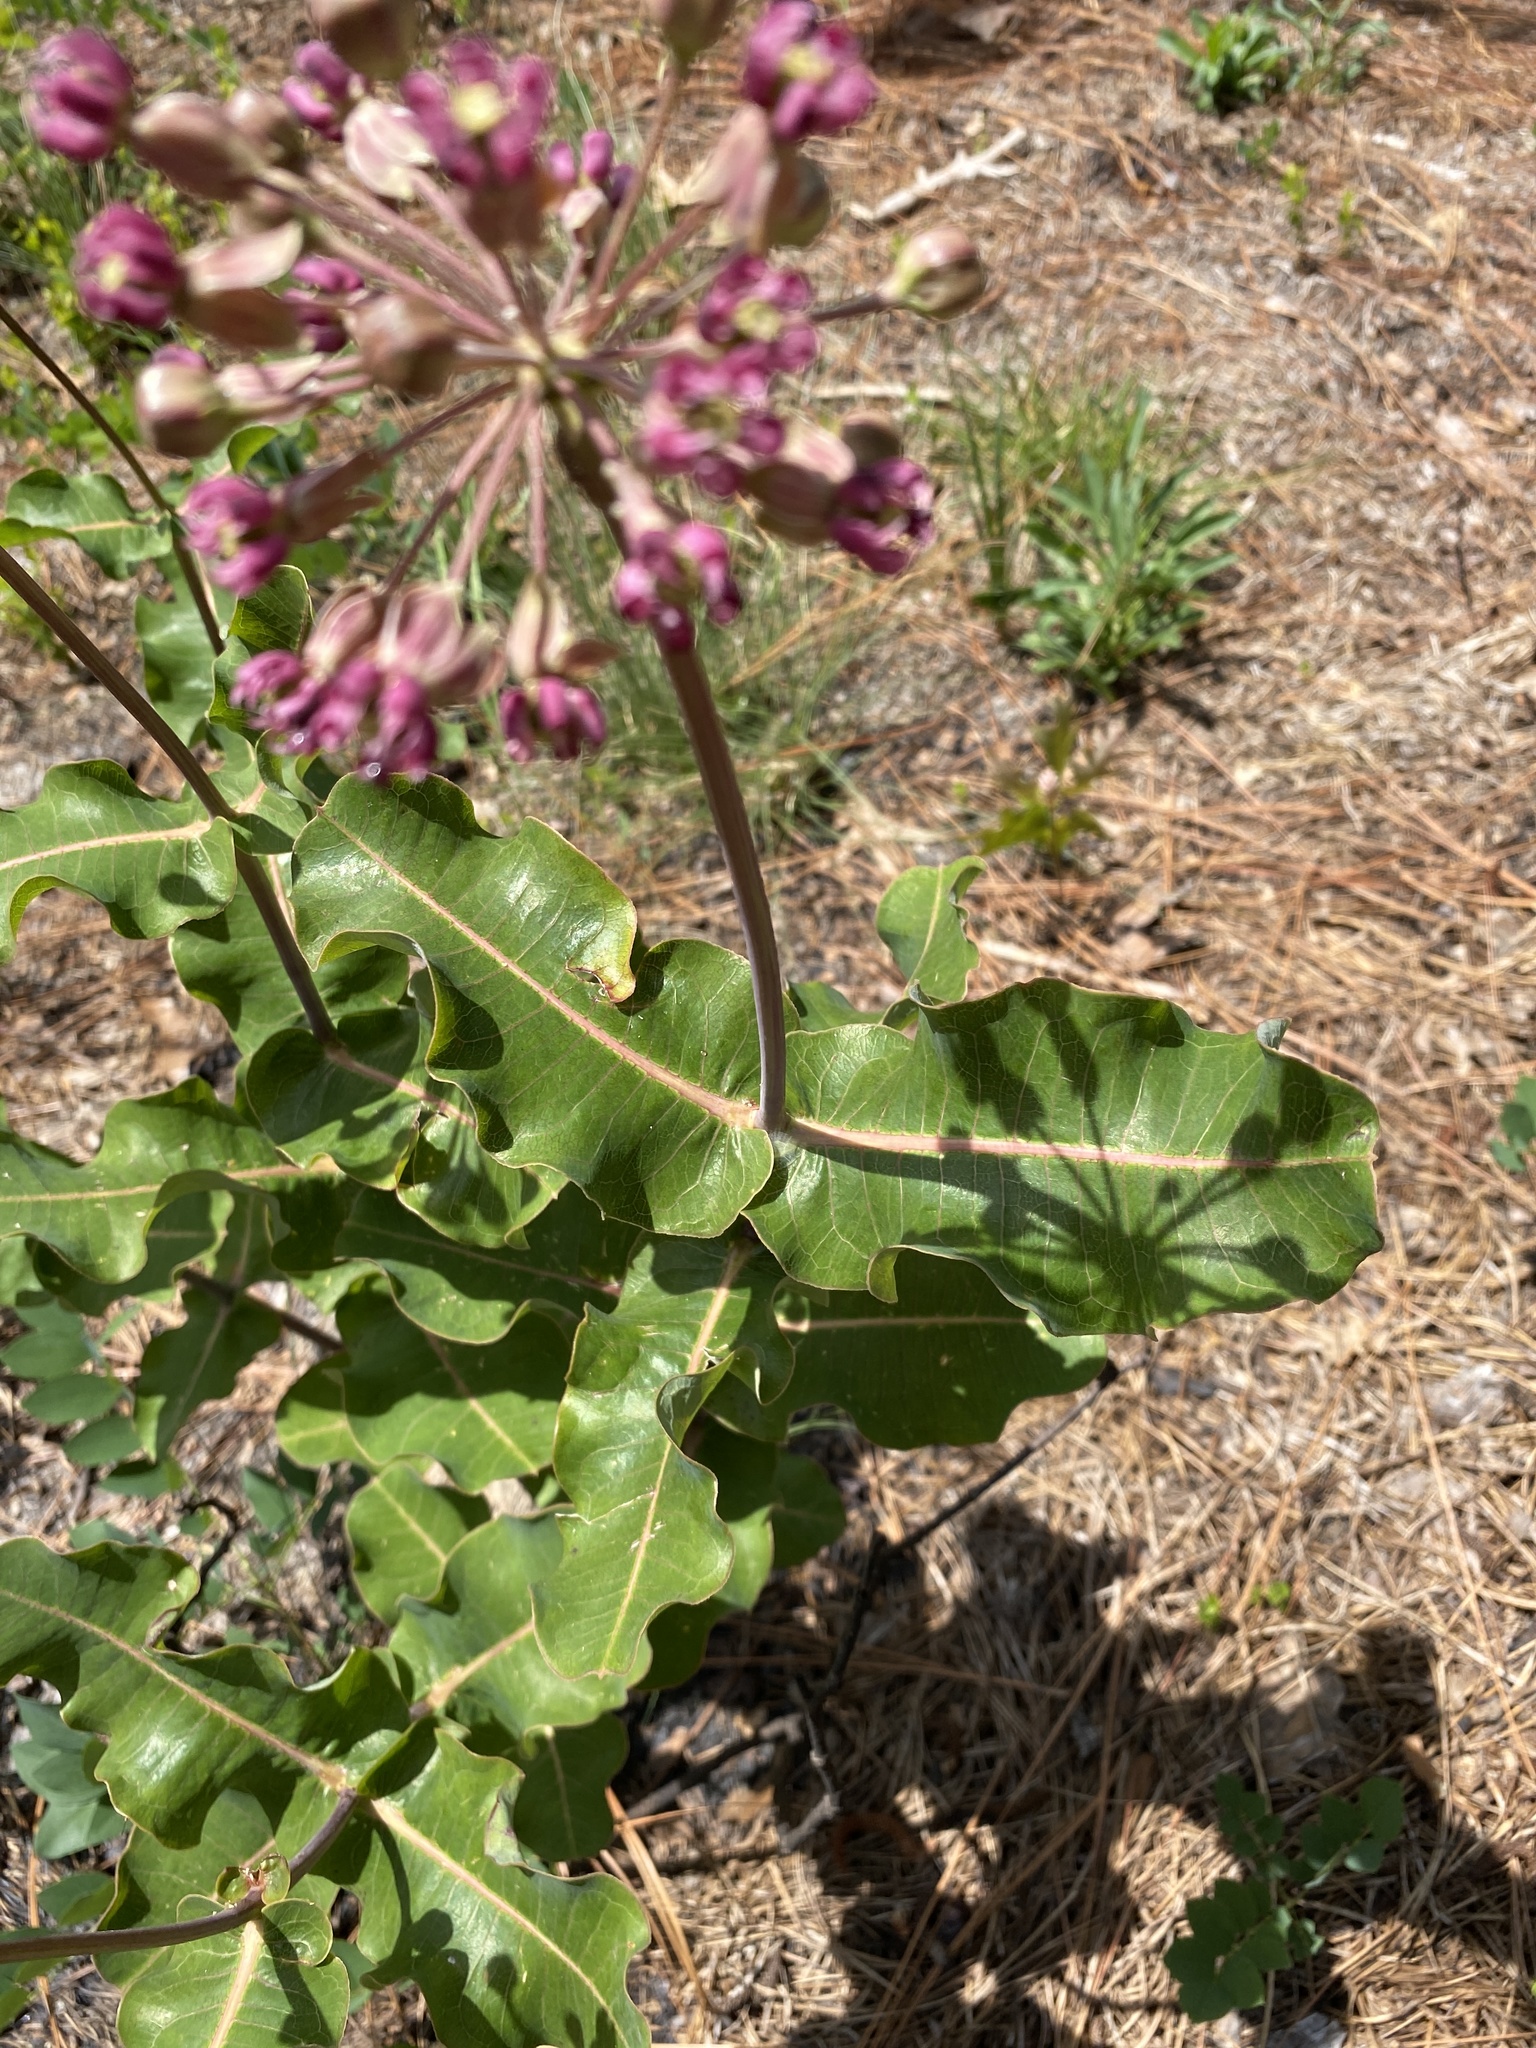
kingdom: Plantae
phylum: Tracheophyta
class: Magnoliopsida
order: Gentianales
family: Apocynaceae
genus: Asclepias
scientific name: Asclepias amplexicaulis
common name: Blunt-leaf milkweed
